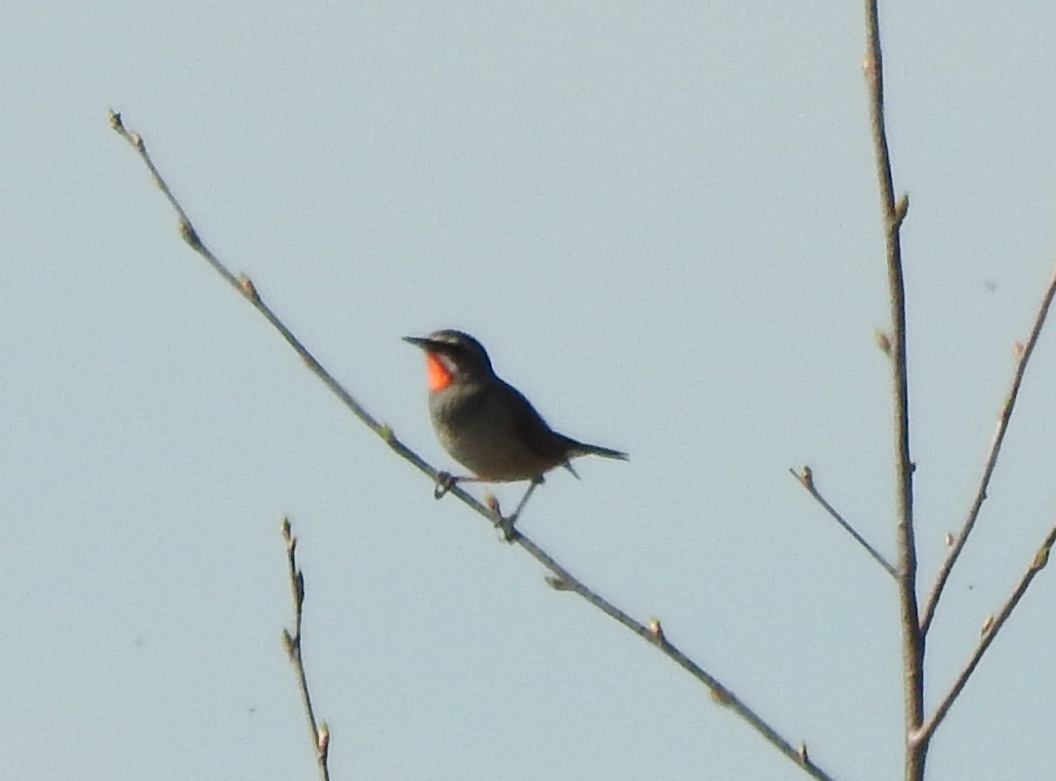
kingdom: Animalia
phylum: Chordata
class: Aves
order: Passeriformes
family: Muscicapidae
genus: Luscinia
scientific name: Luscinia calliope
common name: Siberian rubythroat
